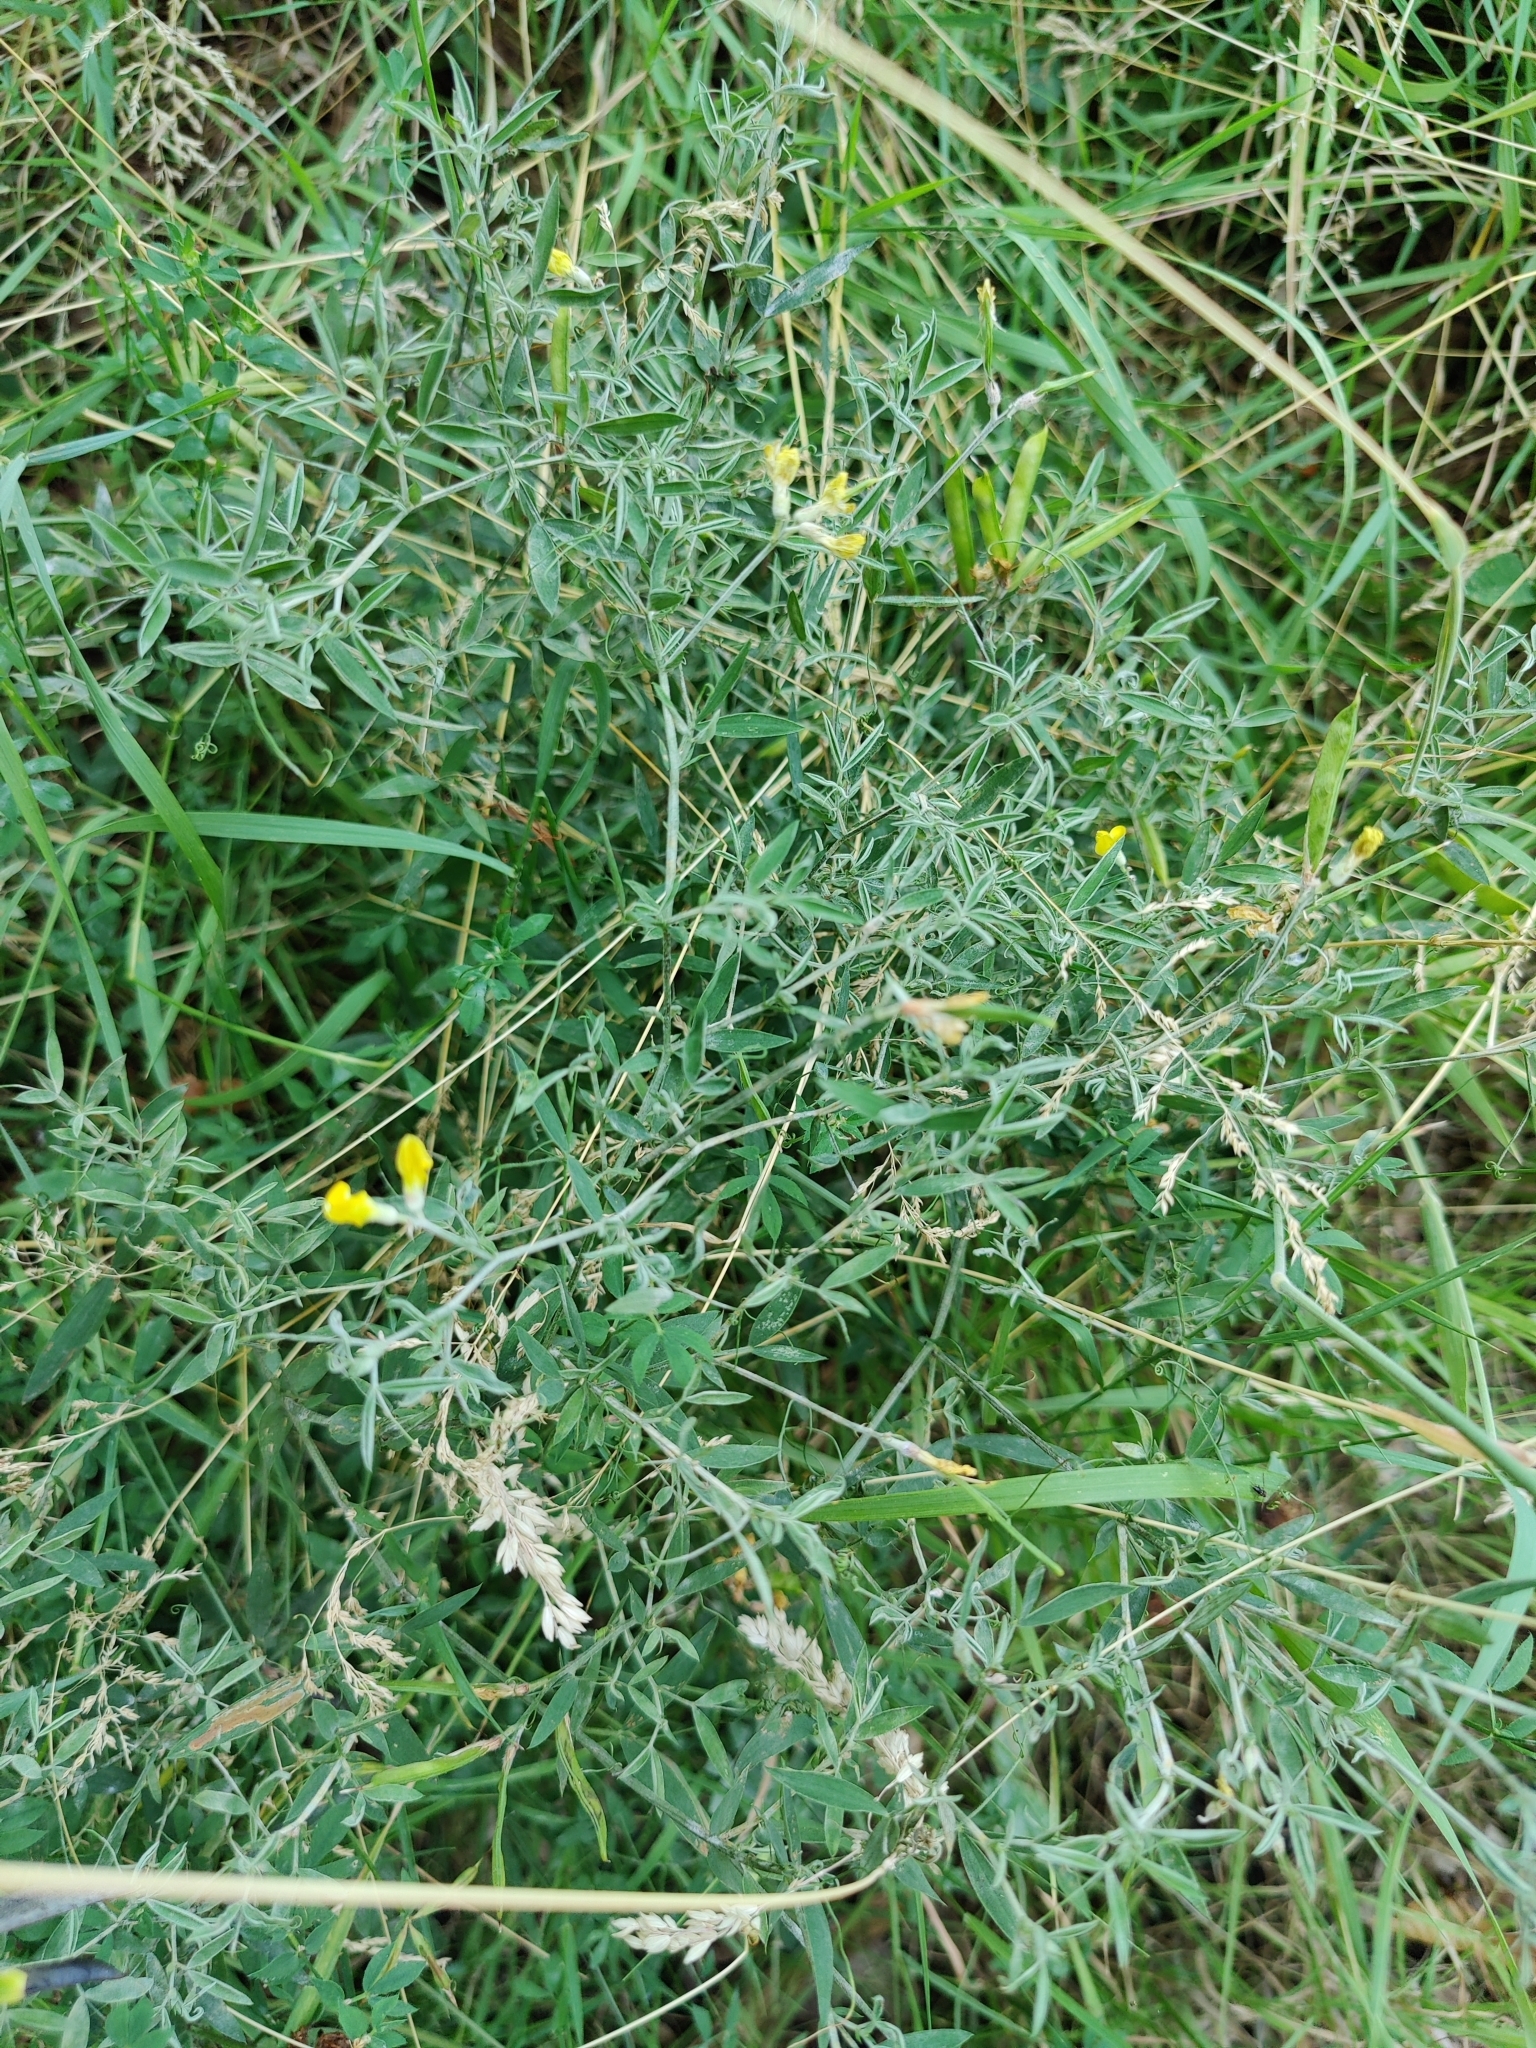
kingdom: Plantae
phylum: Tracheophyta
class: Magnoliopsida
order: Fabales
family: Fabaceae
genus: Medicago
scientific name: Medicago falcata
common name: Sickle medick
